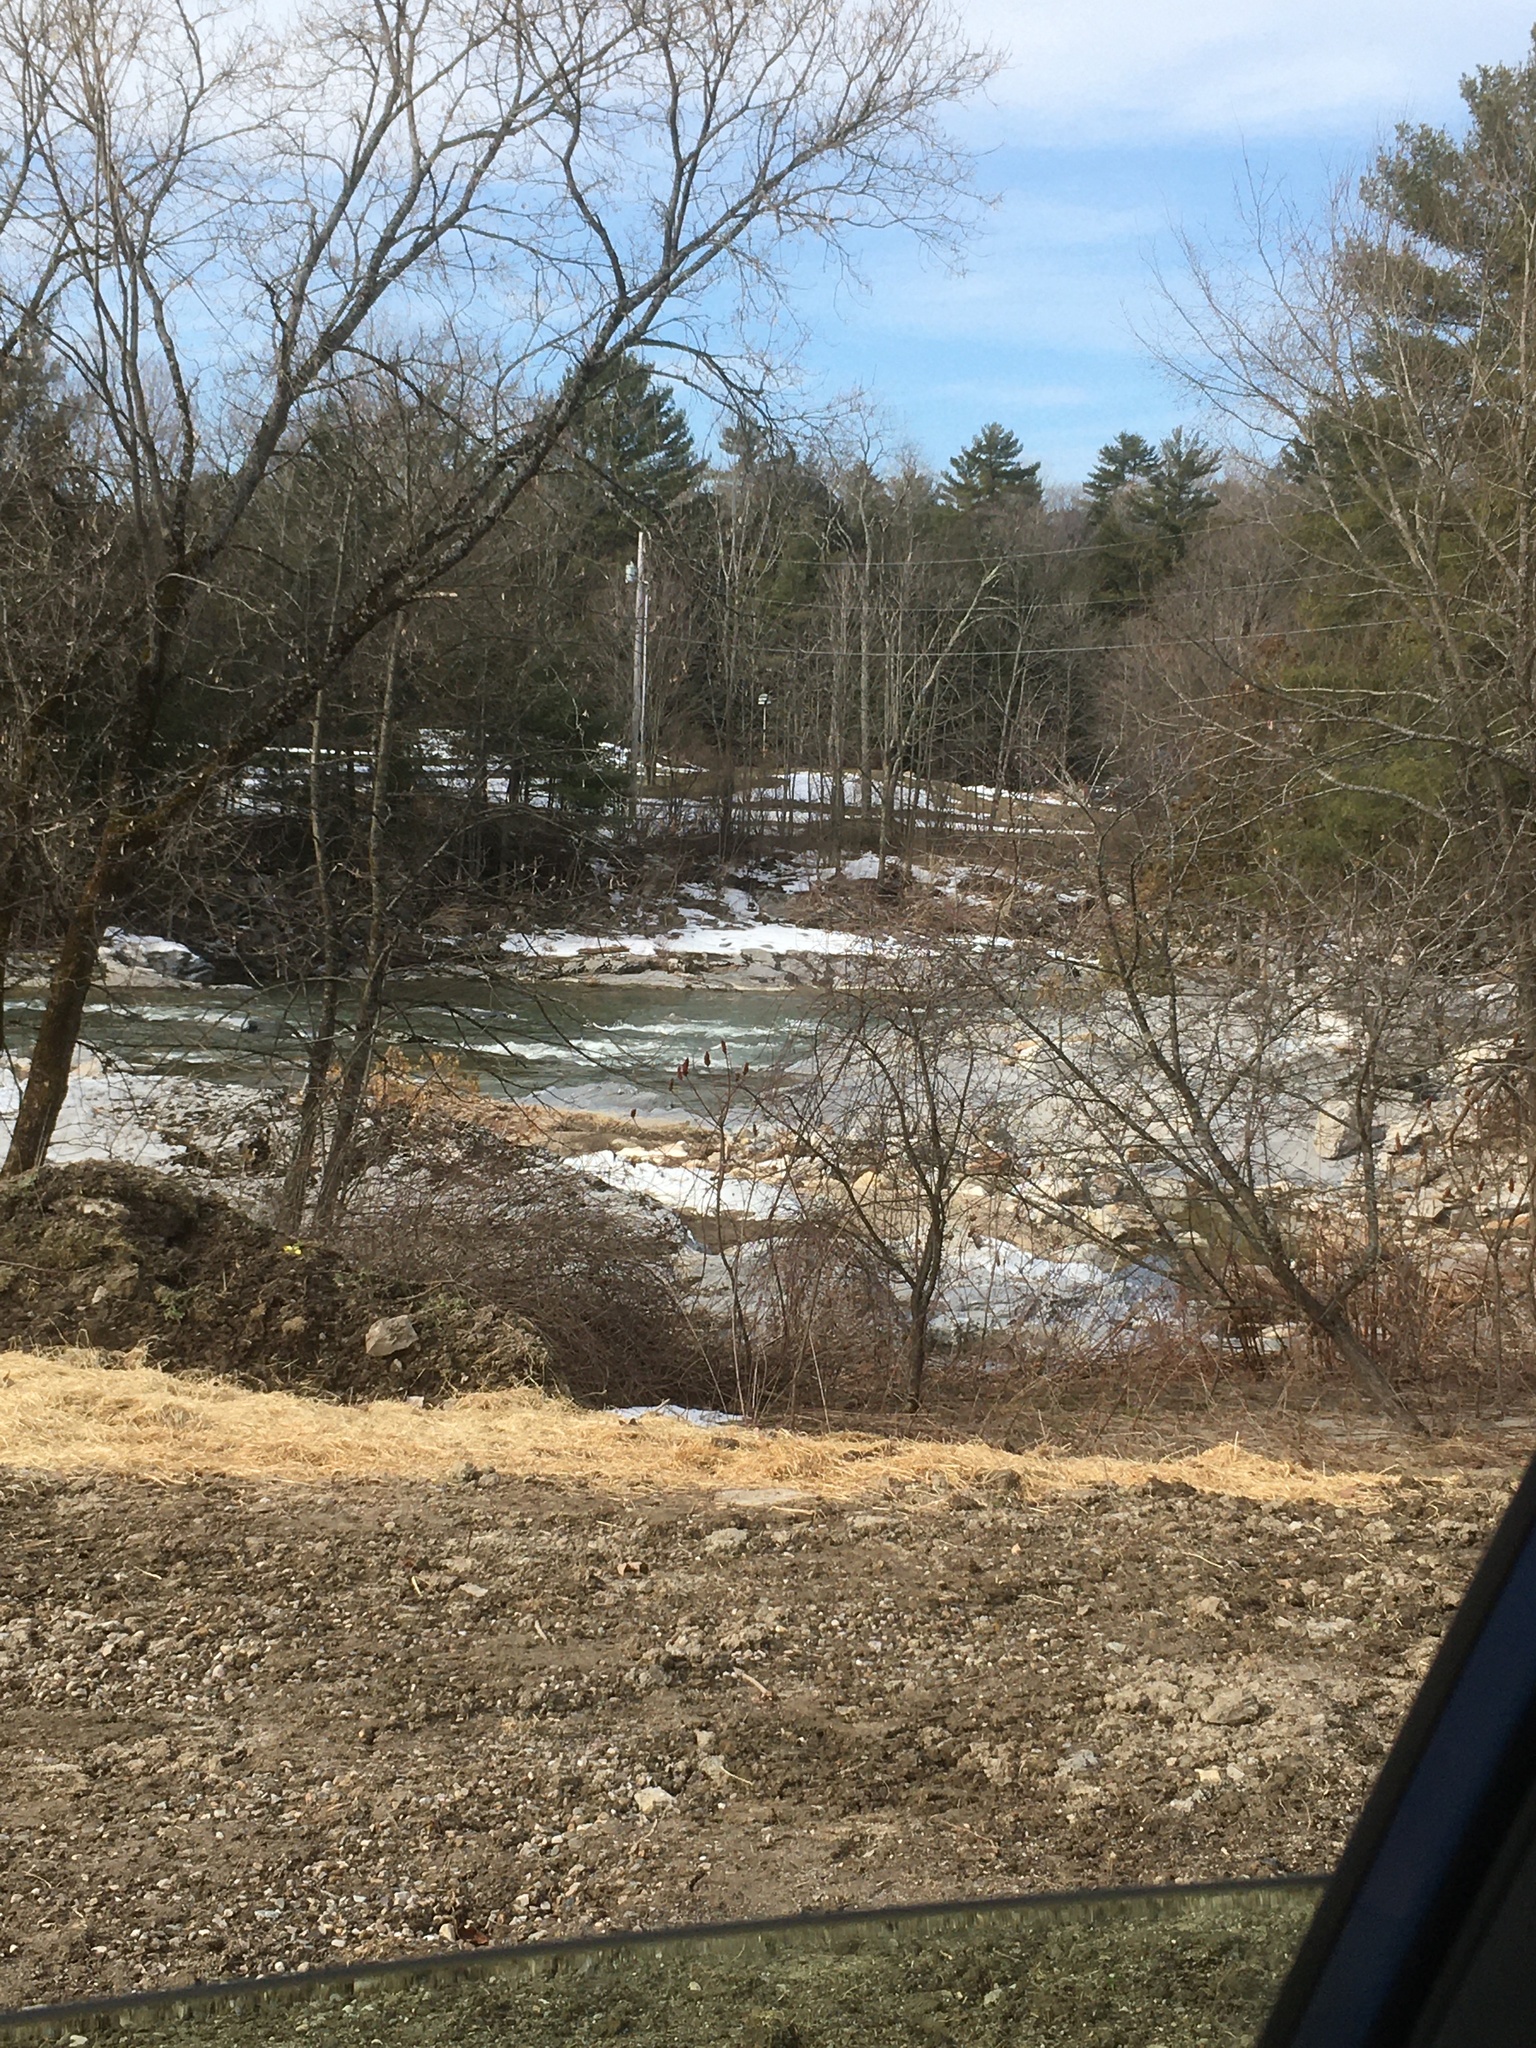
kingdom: Plantae
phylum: Tracheophyta
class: Magnoliopsida
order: Sapindales
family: Anacardiaceae
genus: Rhus
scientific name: Rhus typhina
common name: Staghorn sumac
